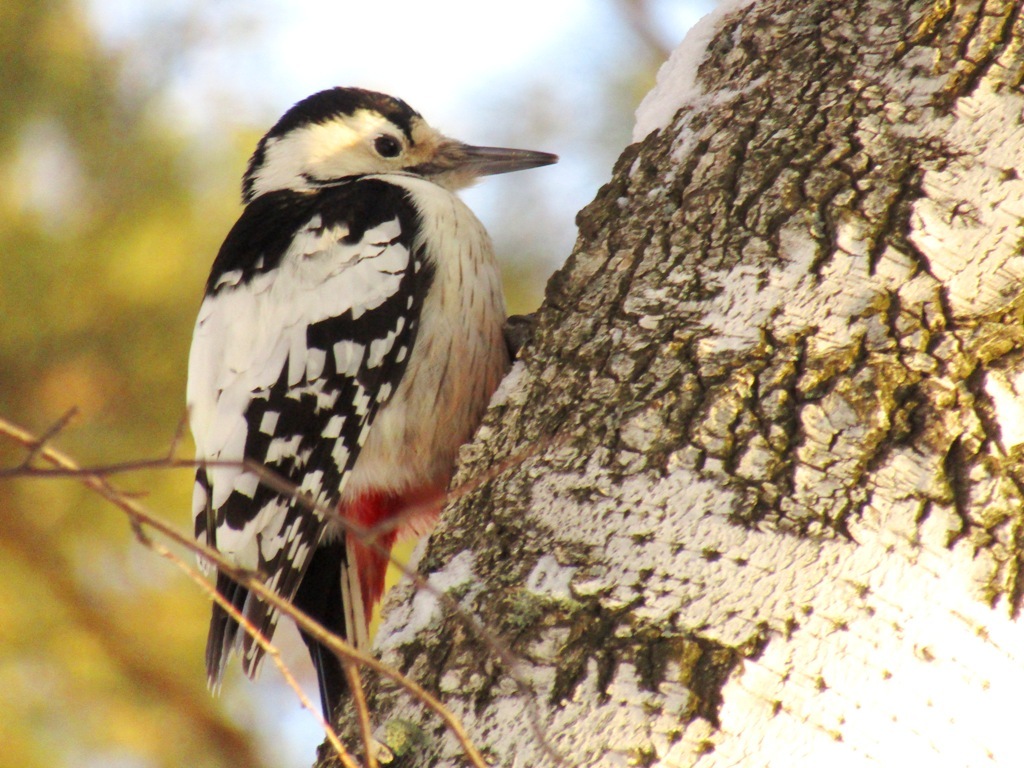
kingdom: Animalia
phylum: Chordata
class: Aves
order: Piciformes
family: Picidae
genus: Dendrocopos
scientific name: Dendrocopos leucotos
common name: White-backed woodpecker
